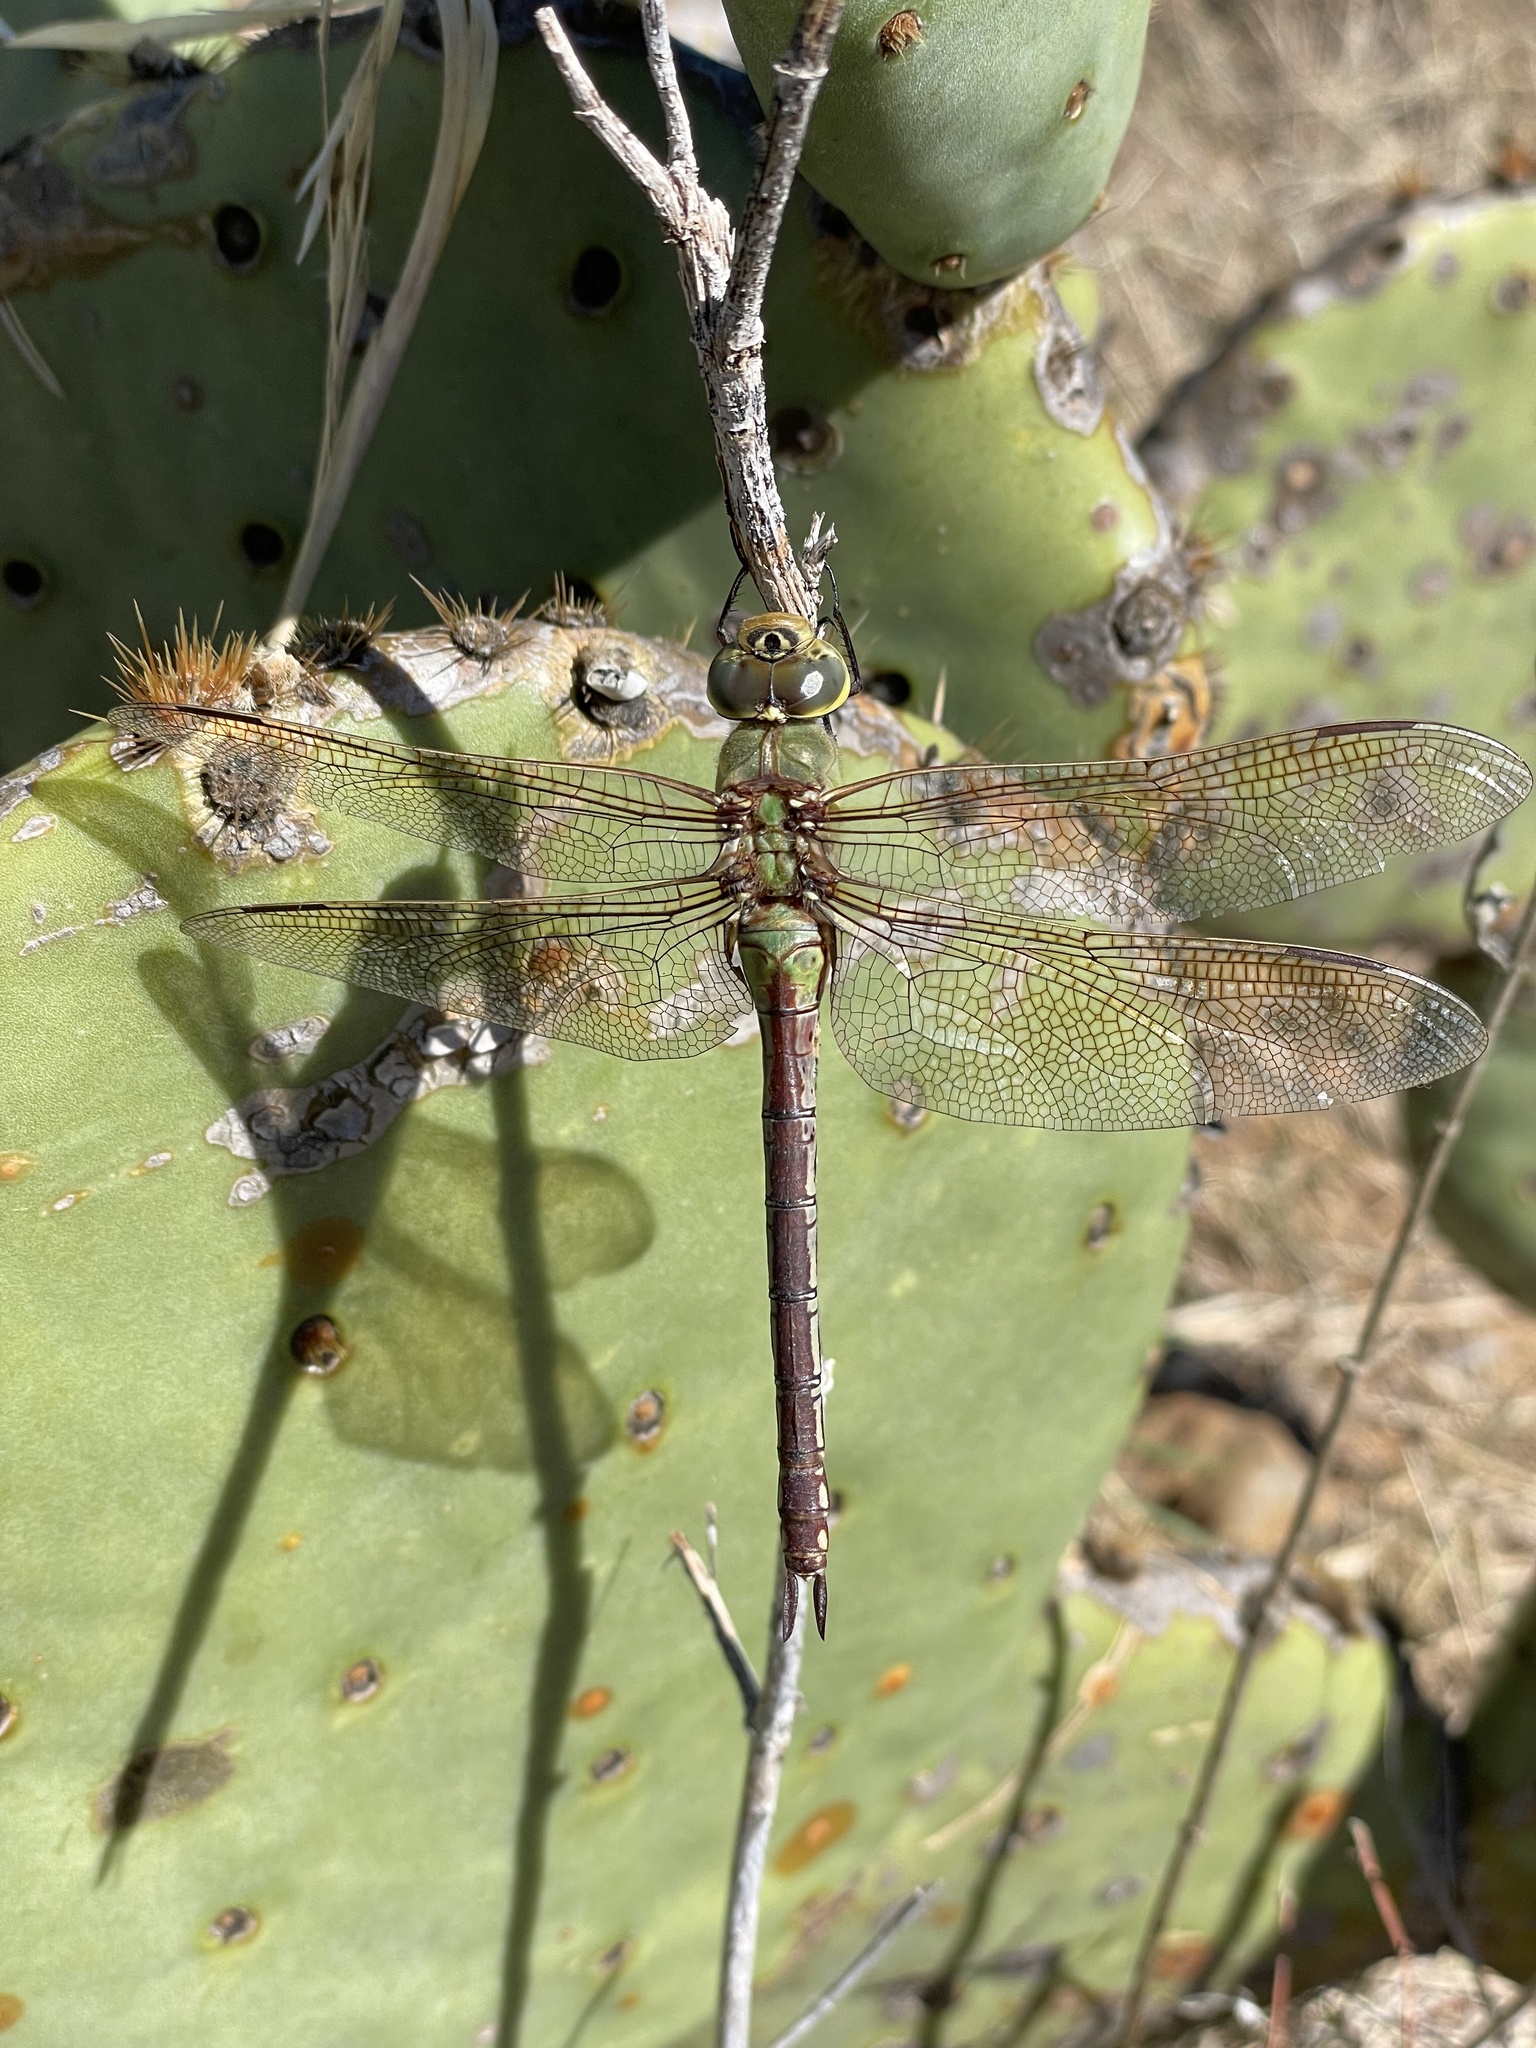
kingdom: Animalia
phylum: Arthropoda
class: Insecta
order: Odonata
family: Aeshnidae
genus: Anax
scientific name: Anax junius
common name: Common green darner
